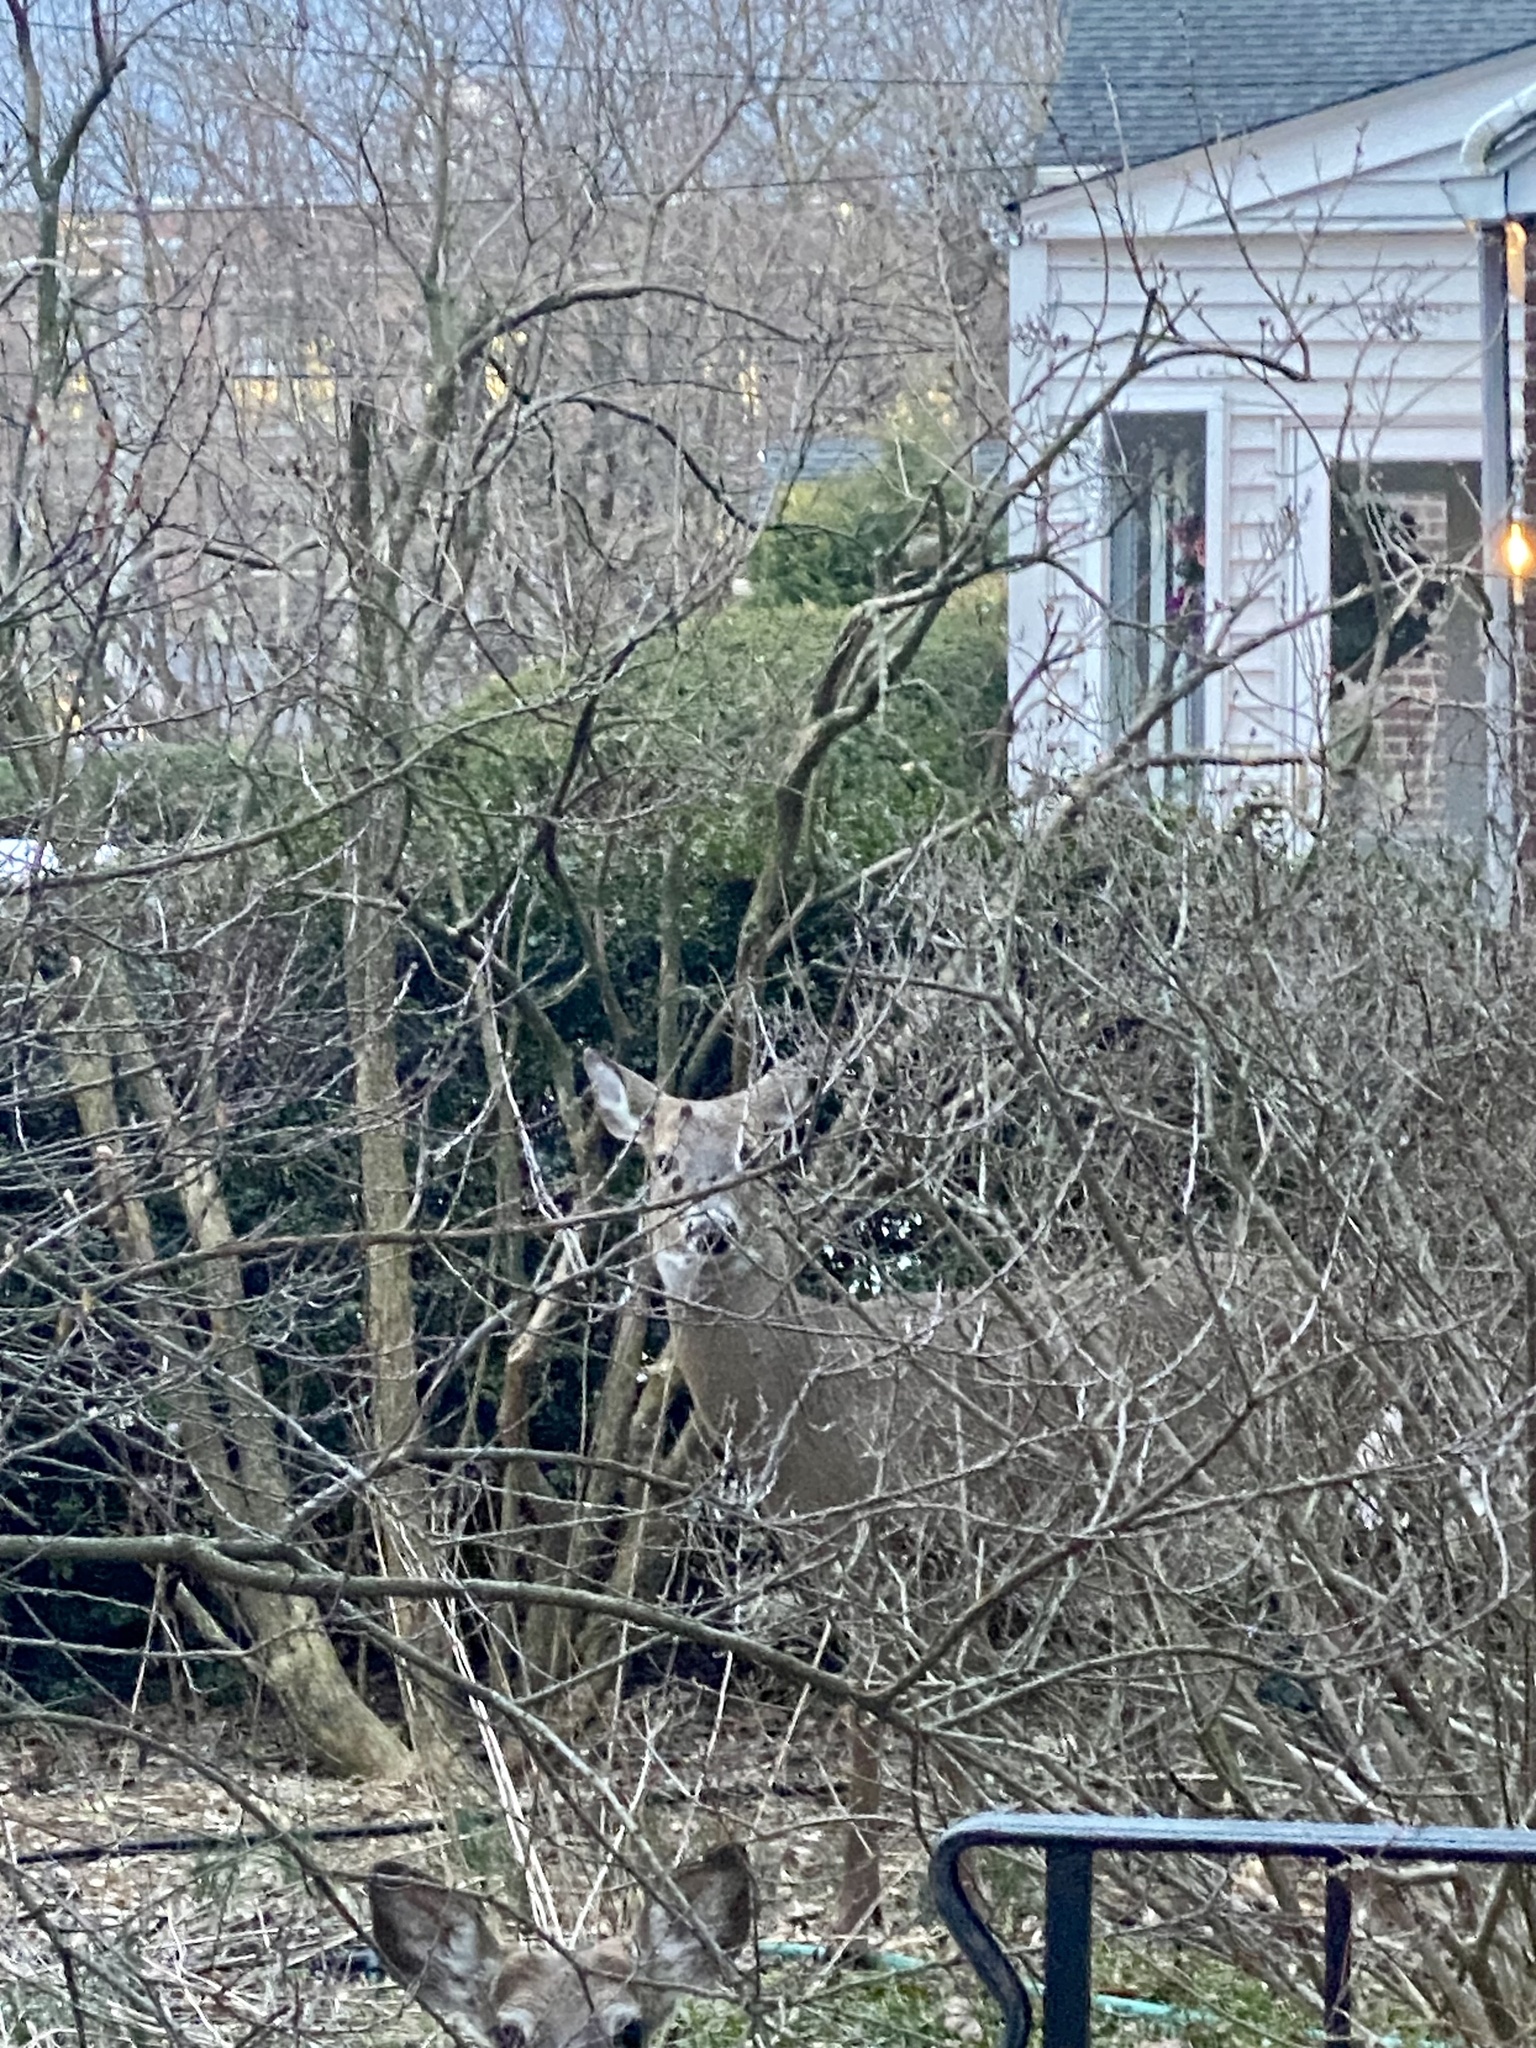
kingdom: Animalia
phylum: Chordata
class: Mammalia
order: Artiodactyla
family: Cervidae
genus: Odocoileus
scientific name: Odocoileus virginianus
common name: White-tailed deer
